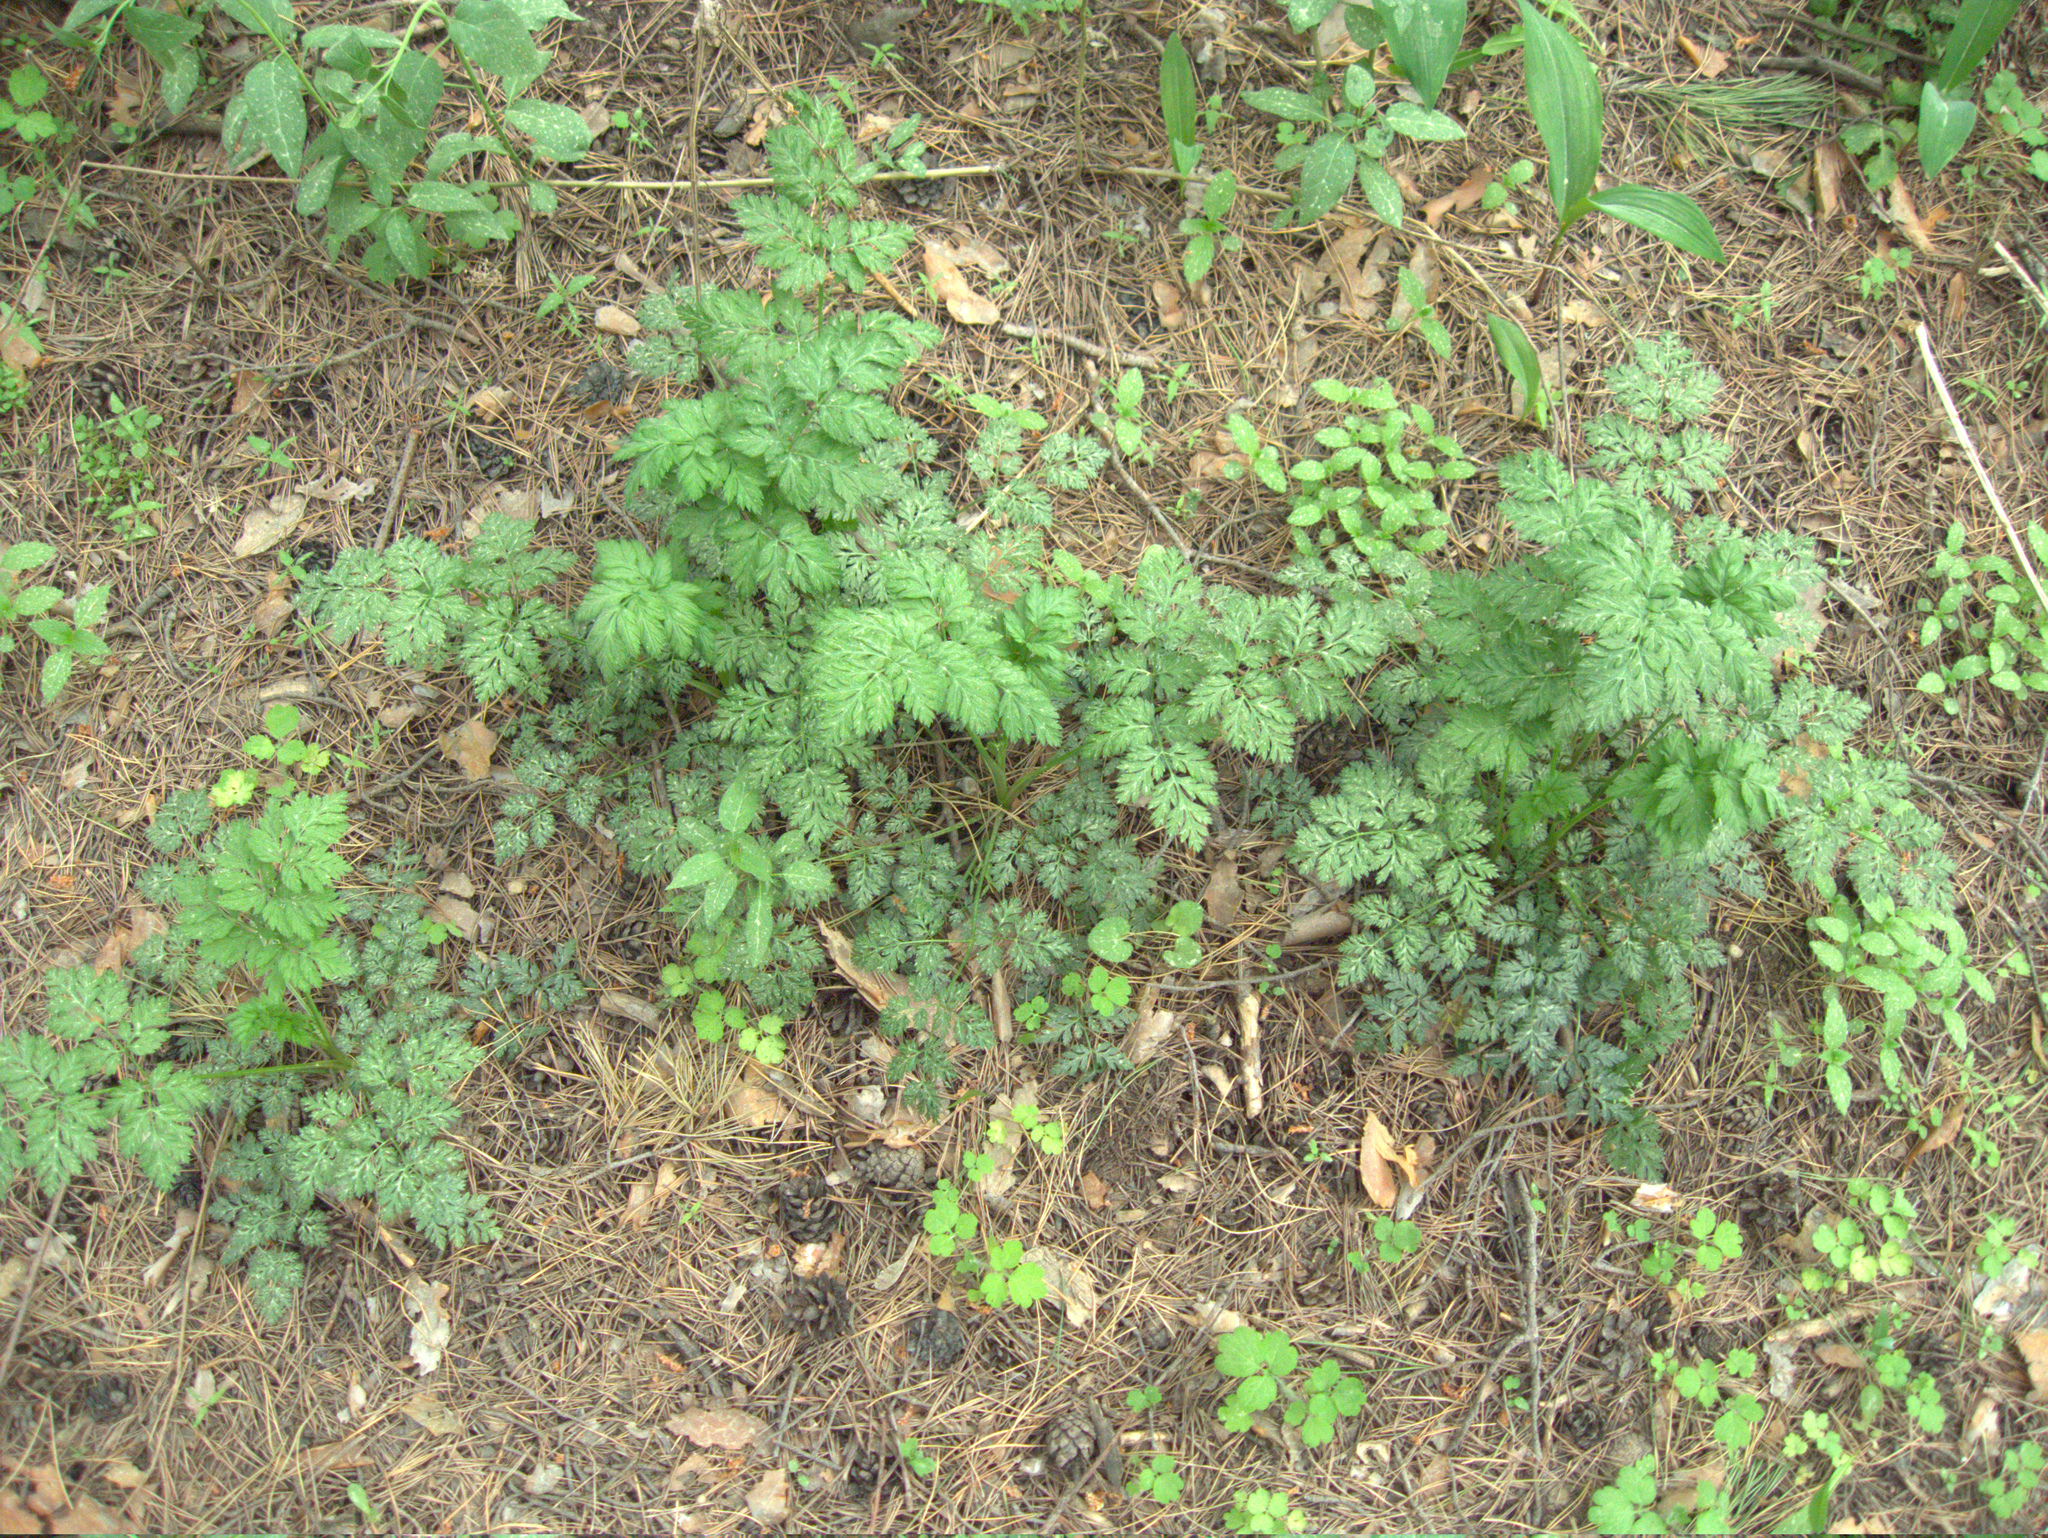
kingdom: Plantae
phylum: Tracheophyta
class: Magnoliopsida
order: Apiales
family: Apiaceae
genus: Anthriscus
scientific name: Anthriscus sylvestris
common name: Cow parsley
